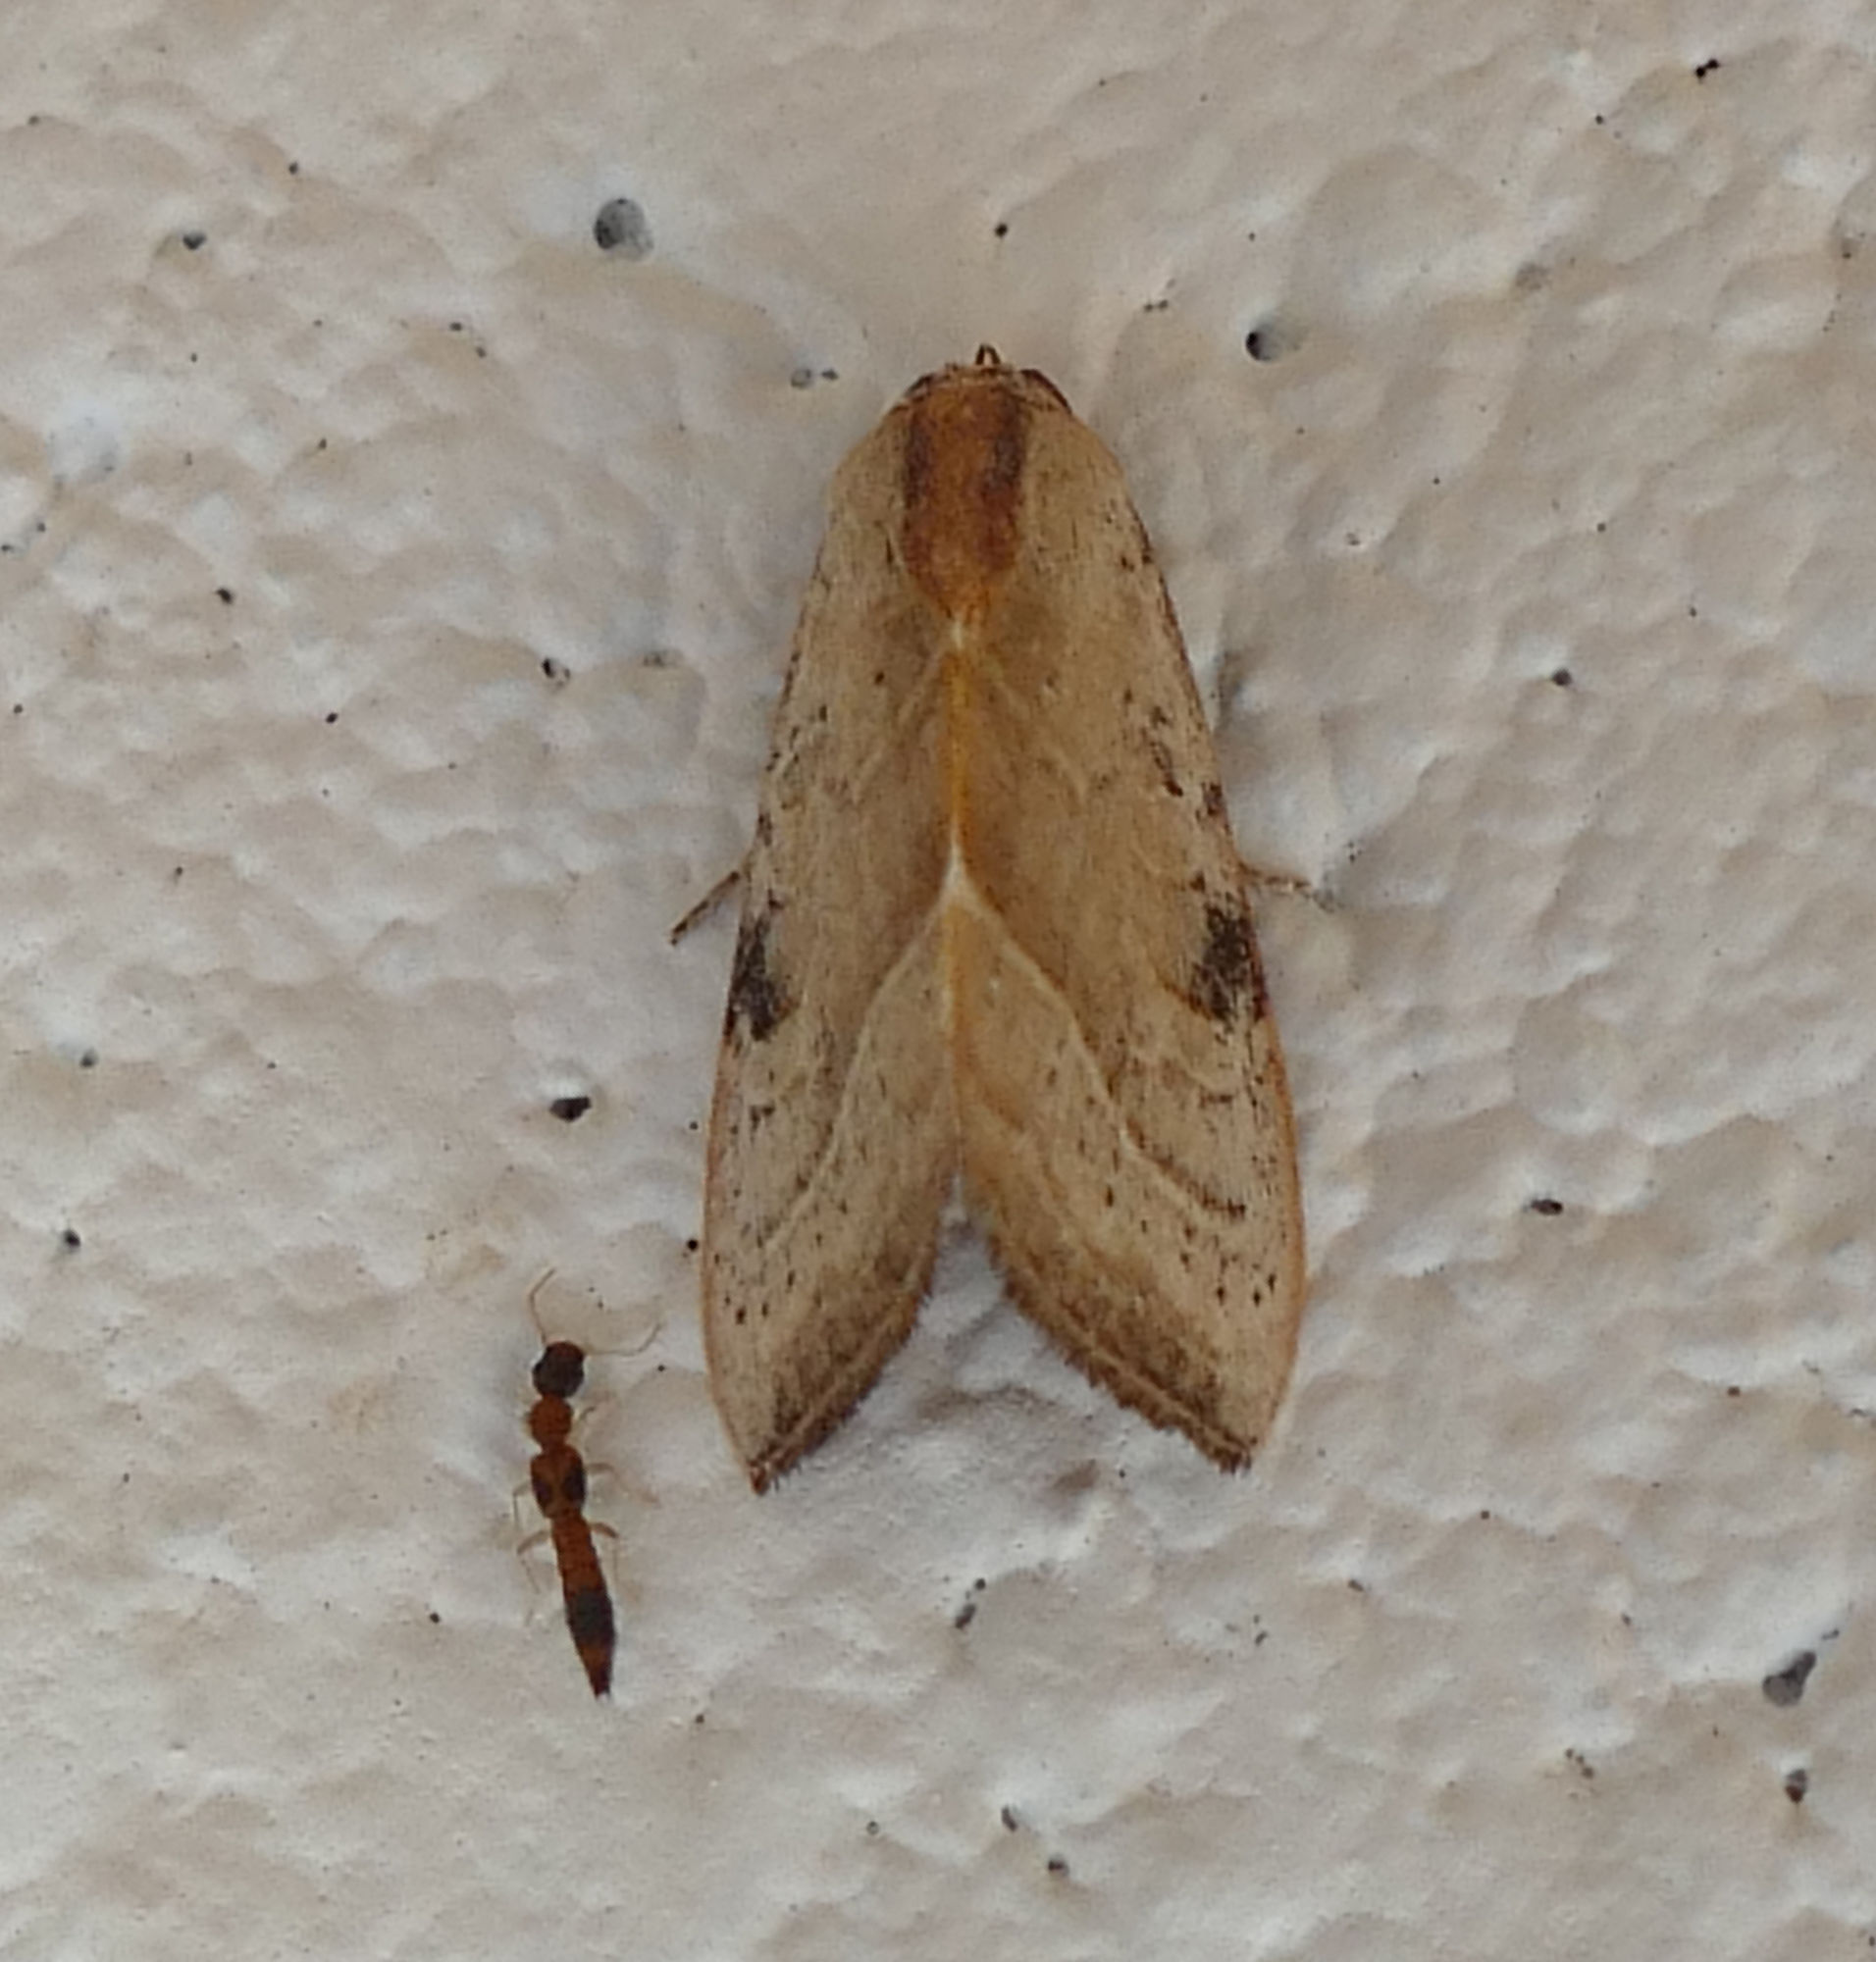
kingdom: Animalia
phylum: Arthropoda
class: Insecta
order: Lepidoptera
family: Noctuidae
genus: Galgula
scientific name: Galgula partita
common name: Wedgeling
